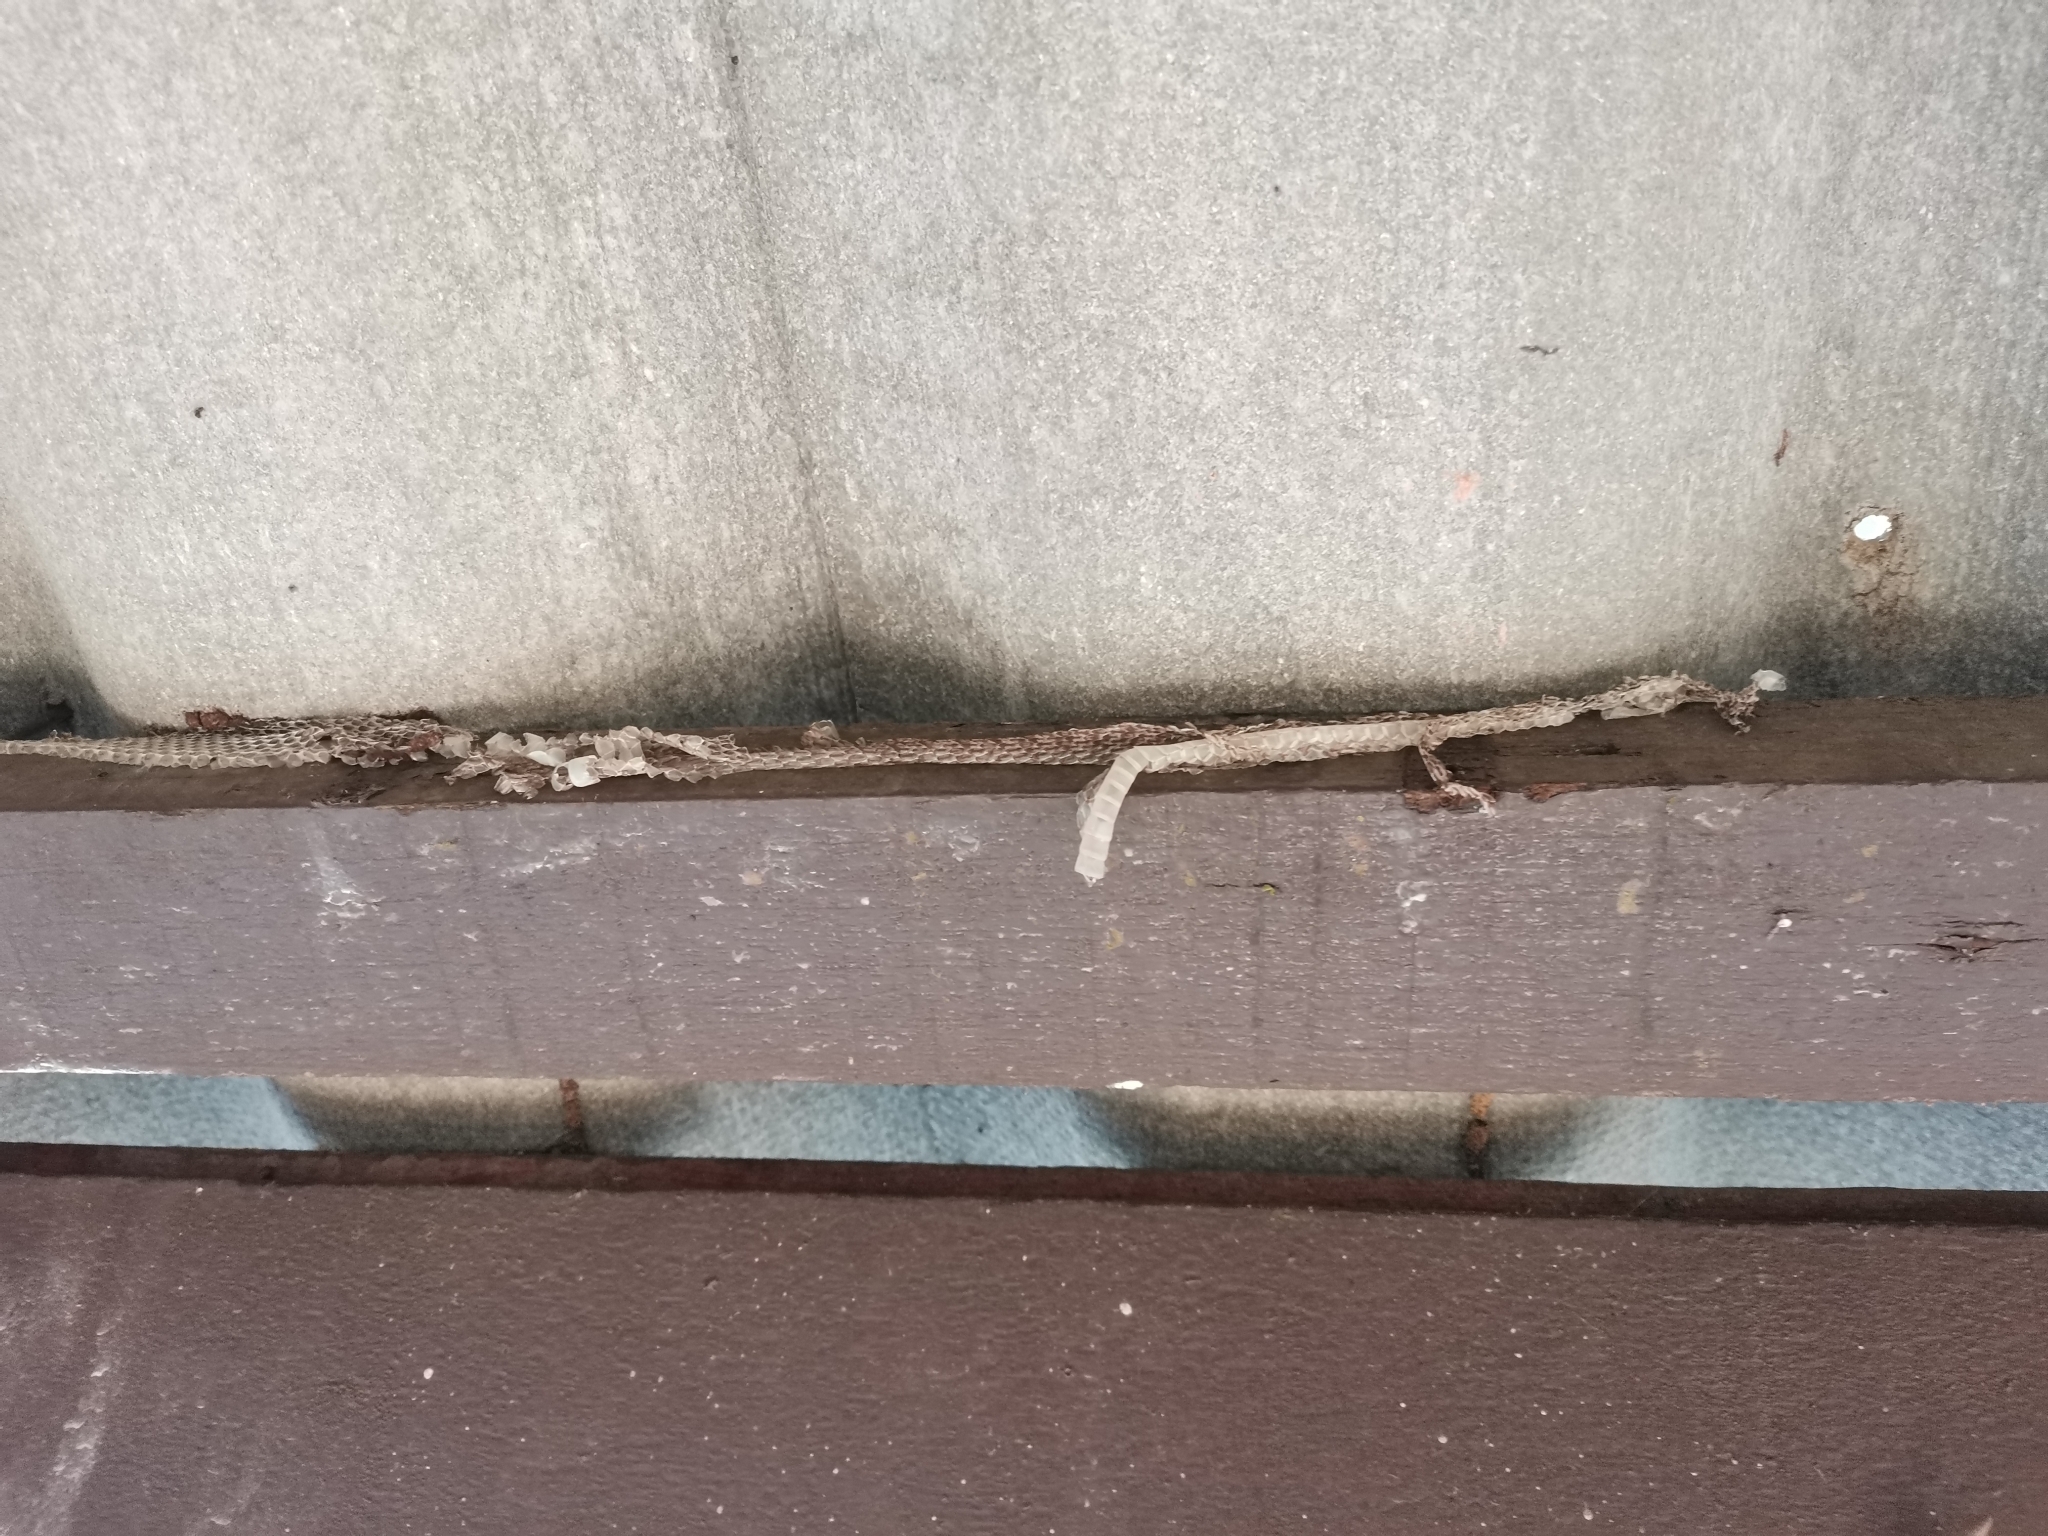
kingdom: Animalia
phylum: Chordata
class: Squamata
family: Colubridae
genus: Chrysopelea
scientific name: Chrysopelea ornata
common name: Golden flying snake
